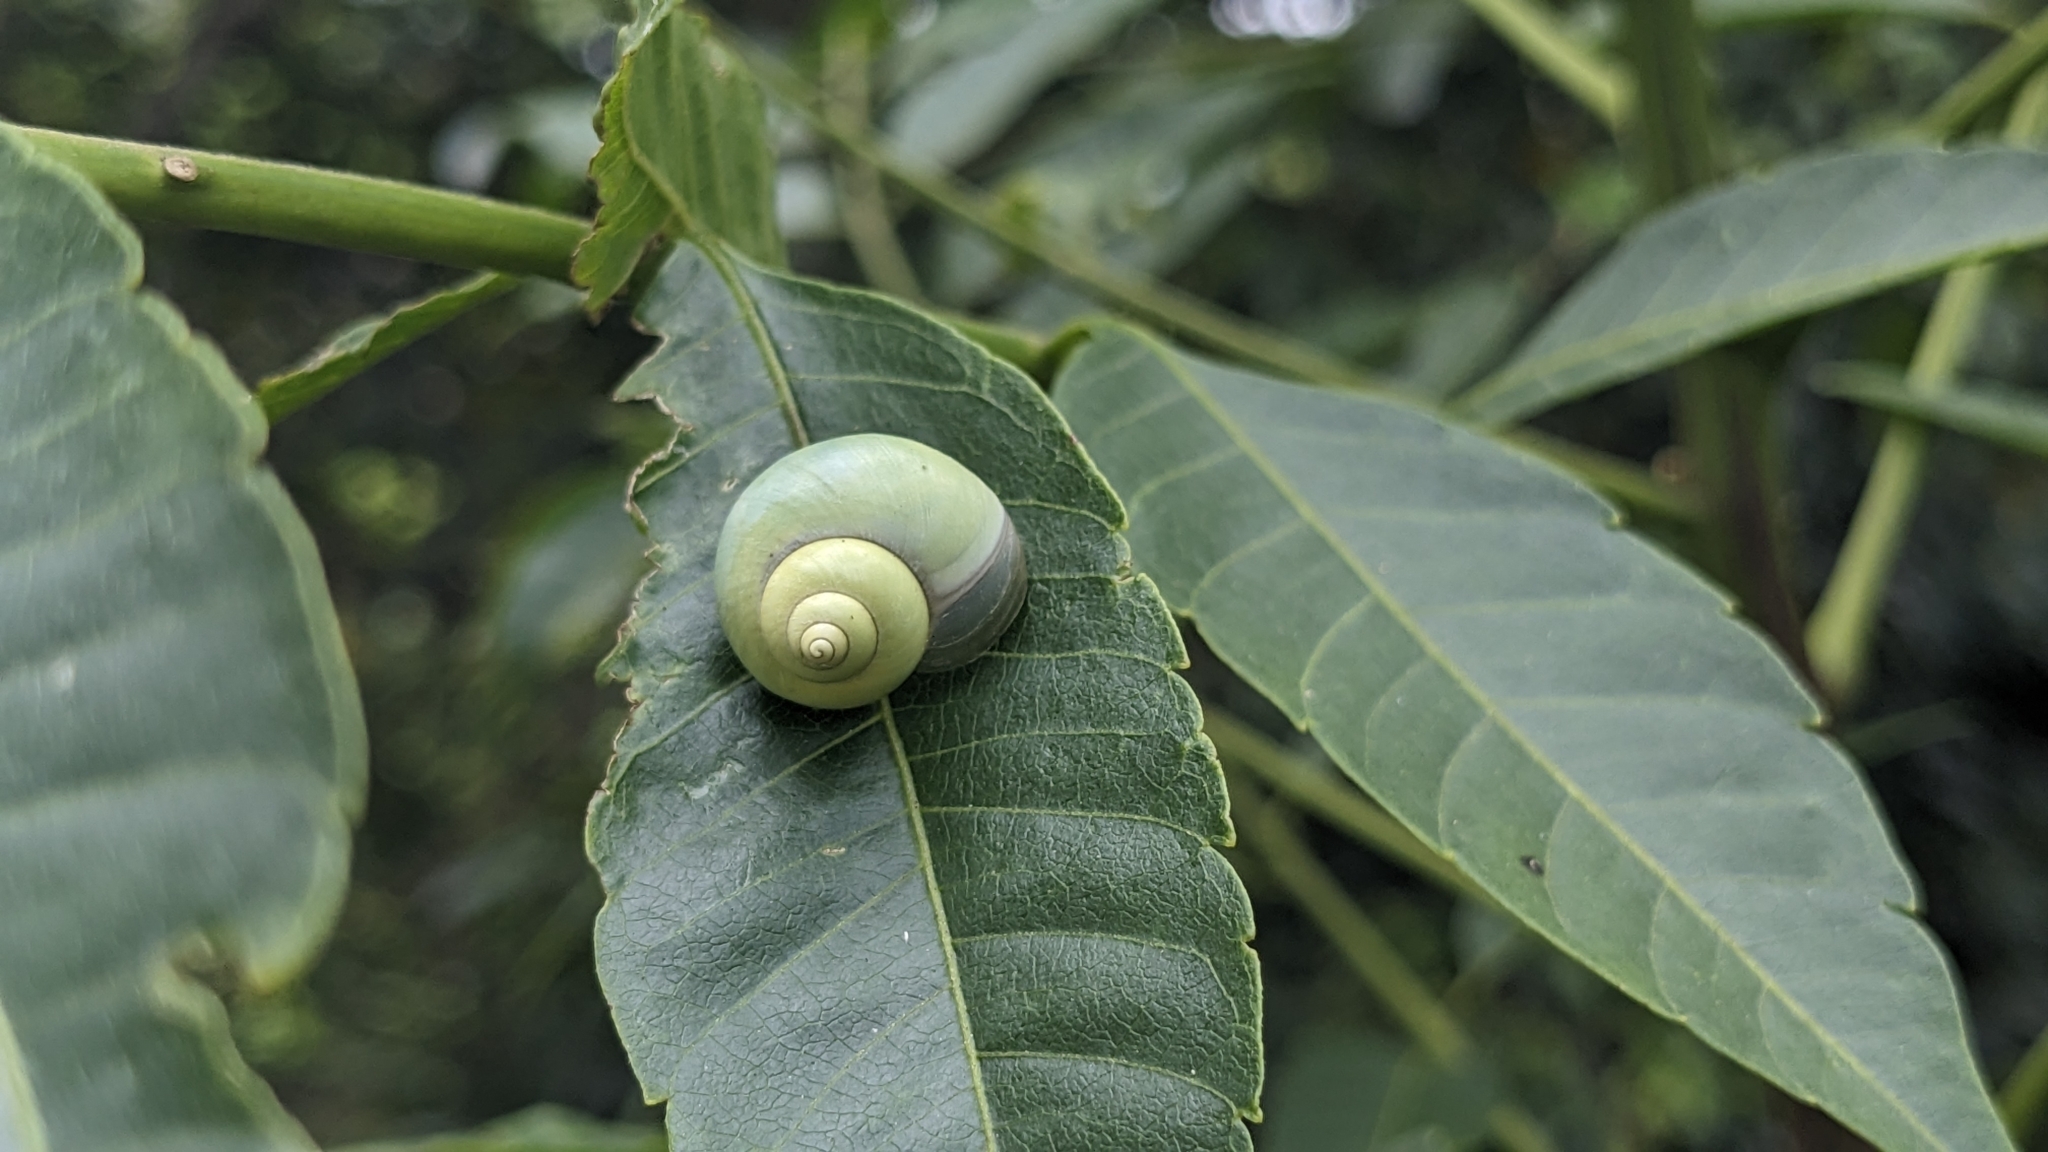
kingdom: Animalia
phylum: Mollusca
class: Gastropoda
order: Architaenioglossa
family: Cyclophoridae
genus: Leptopoma
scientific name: Leptopoma nitidum
